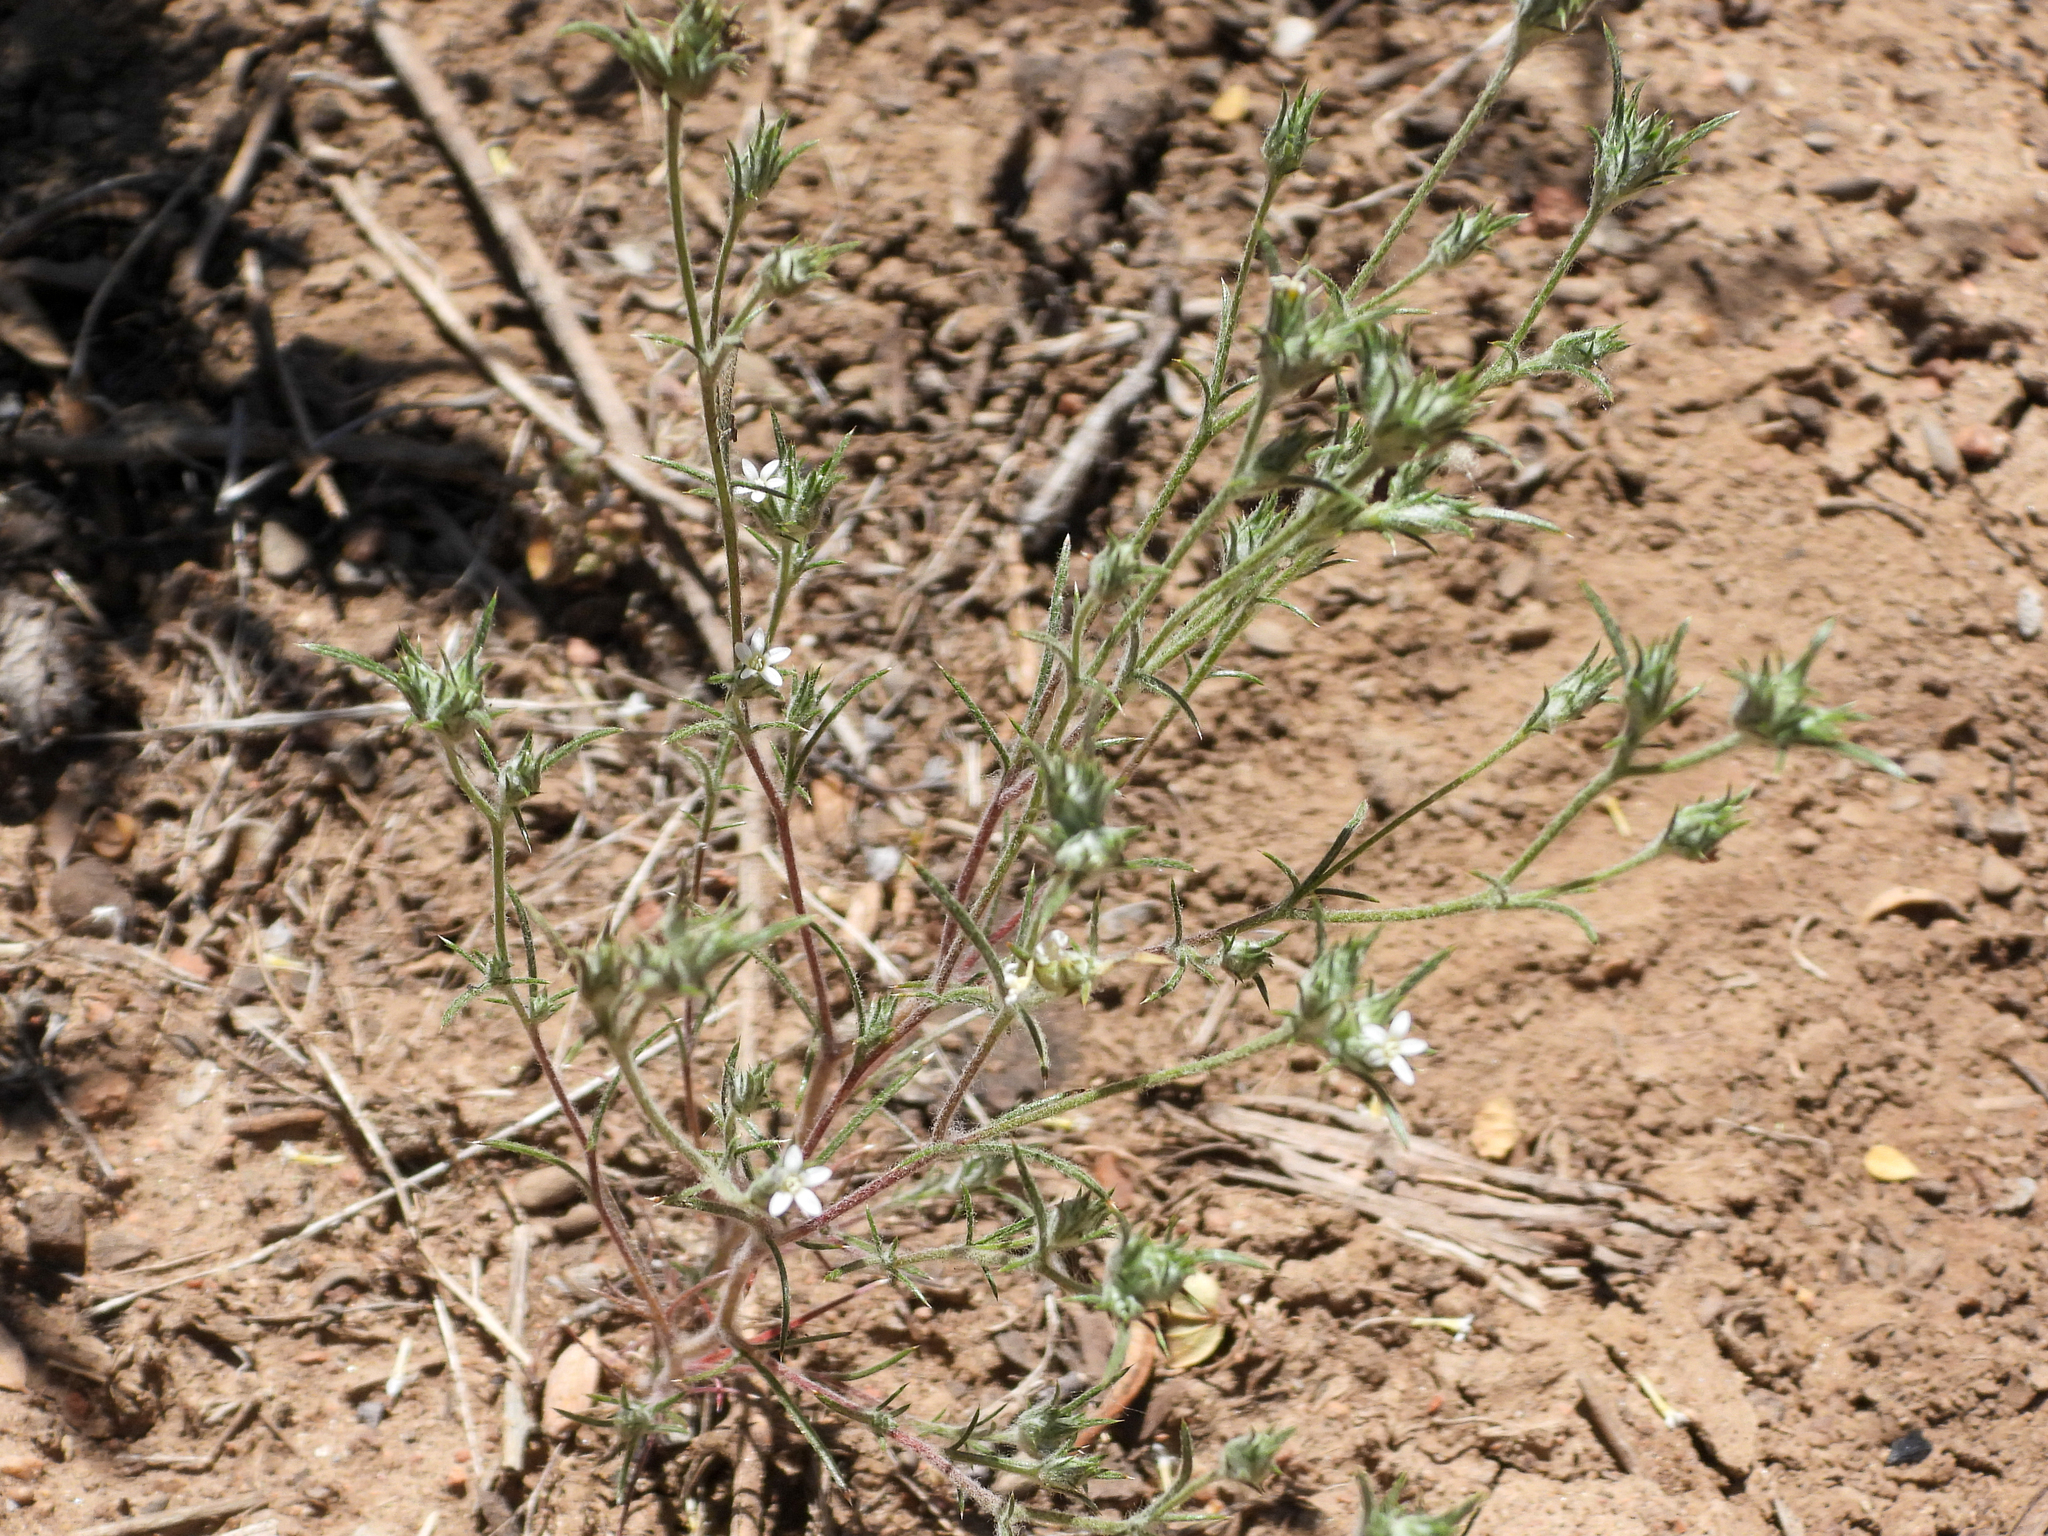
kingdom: Plantae
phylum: Tracheophyta
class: Magnoliopsida
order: Ericales
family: Polemoniaceae
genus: Eriastrum
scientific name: Eriastrum tracyi
